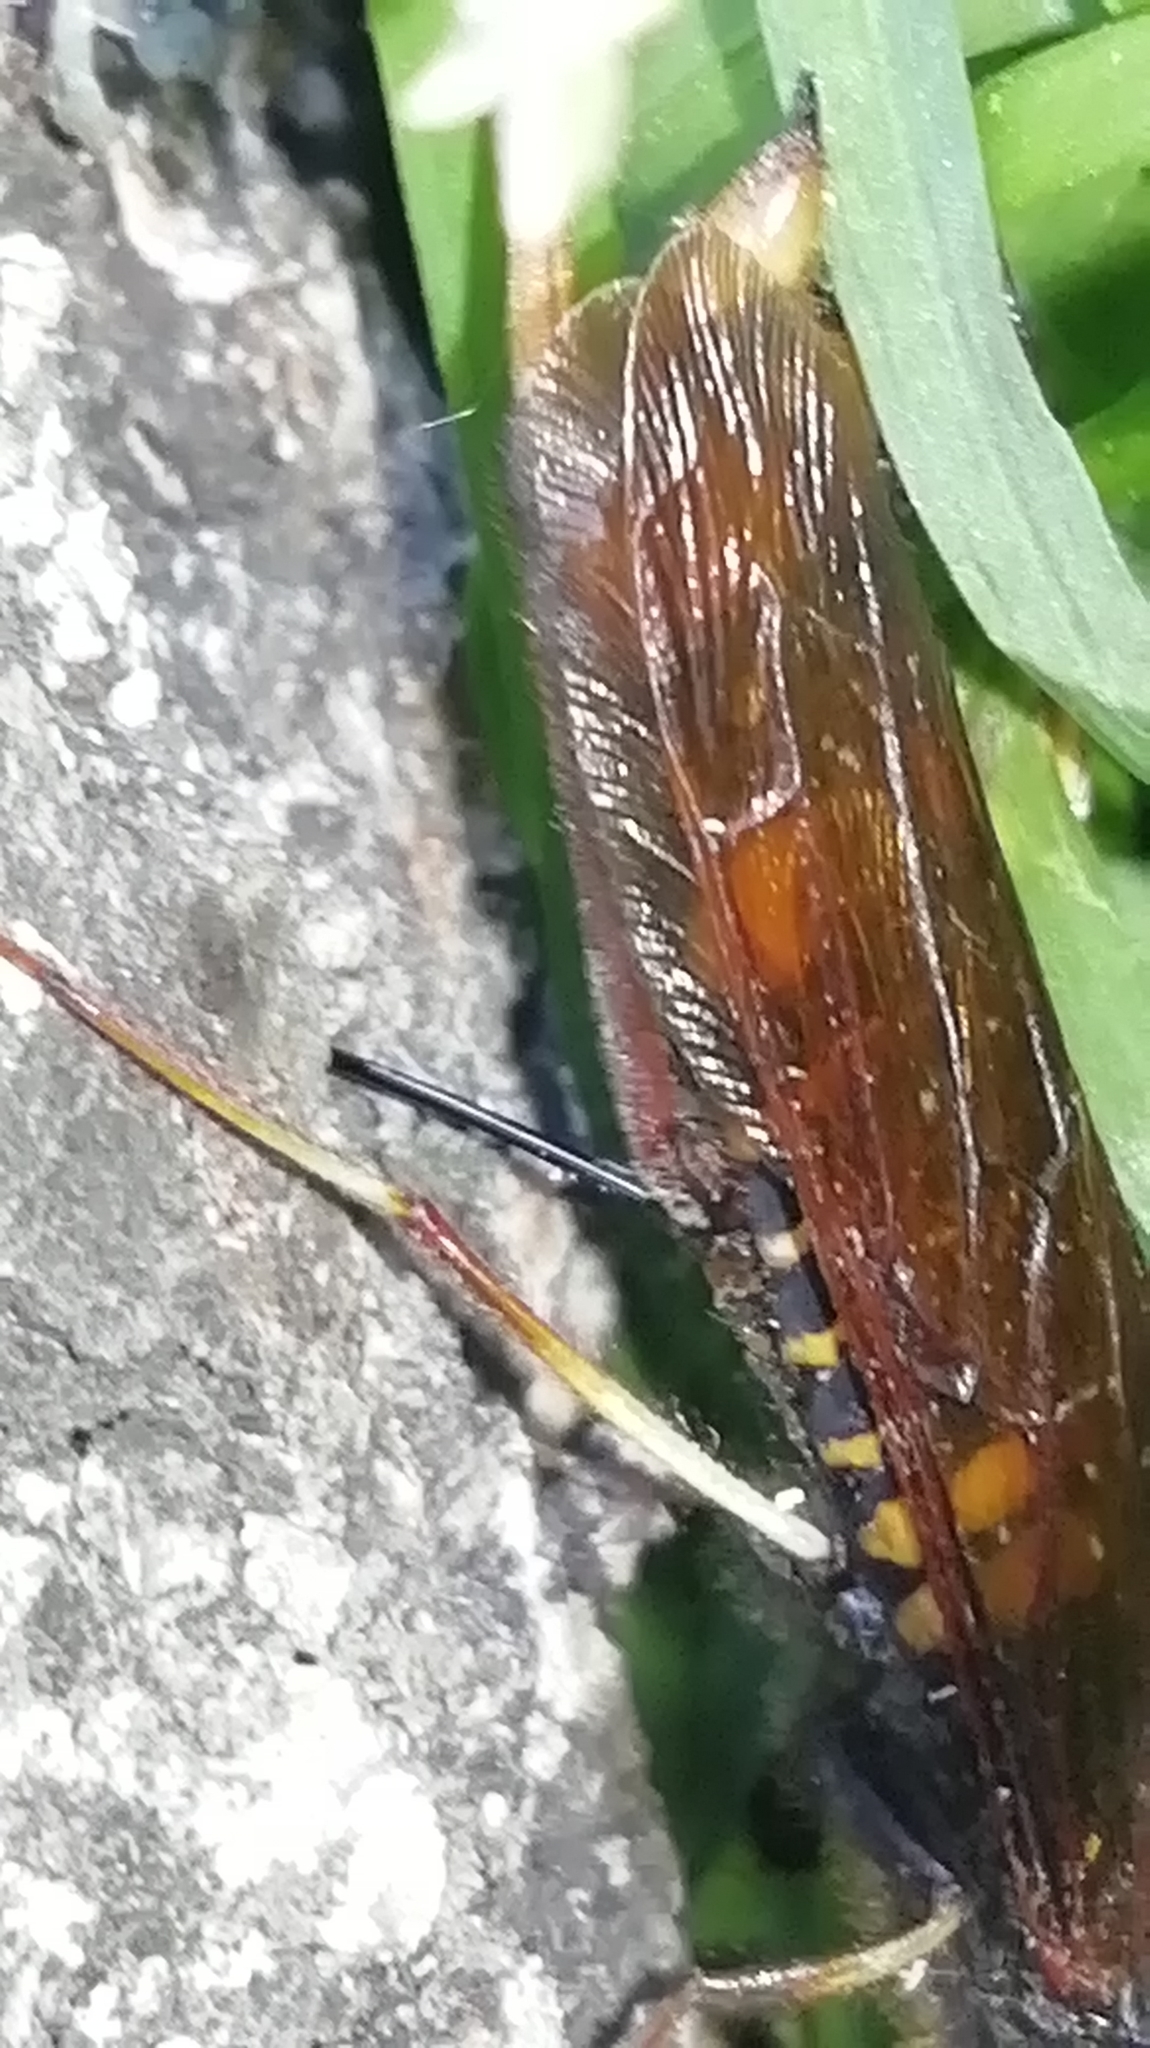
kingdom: Animalia
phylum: Arthropoda
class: Insecta
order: Hymenoptera
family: Siricidae
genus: Tremex
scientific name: Tremex fuscicornis
